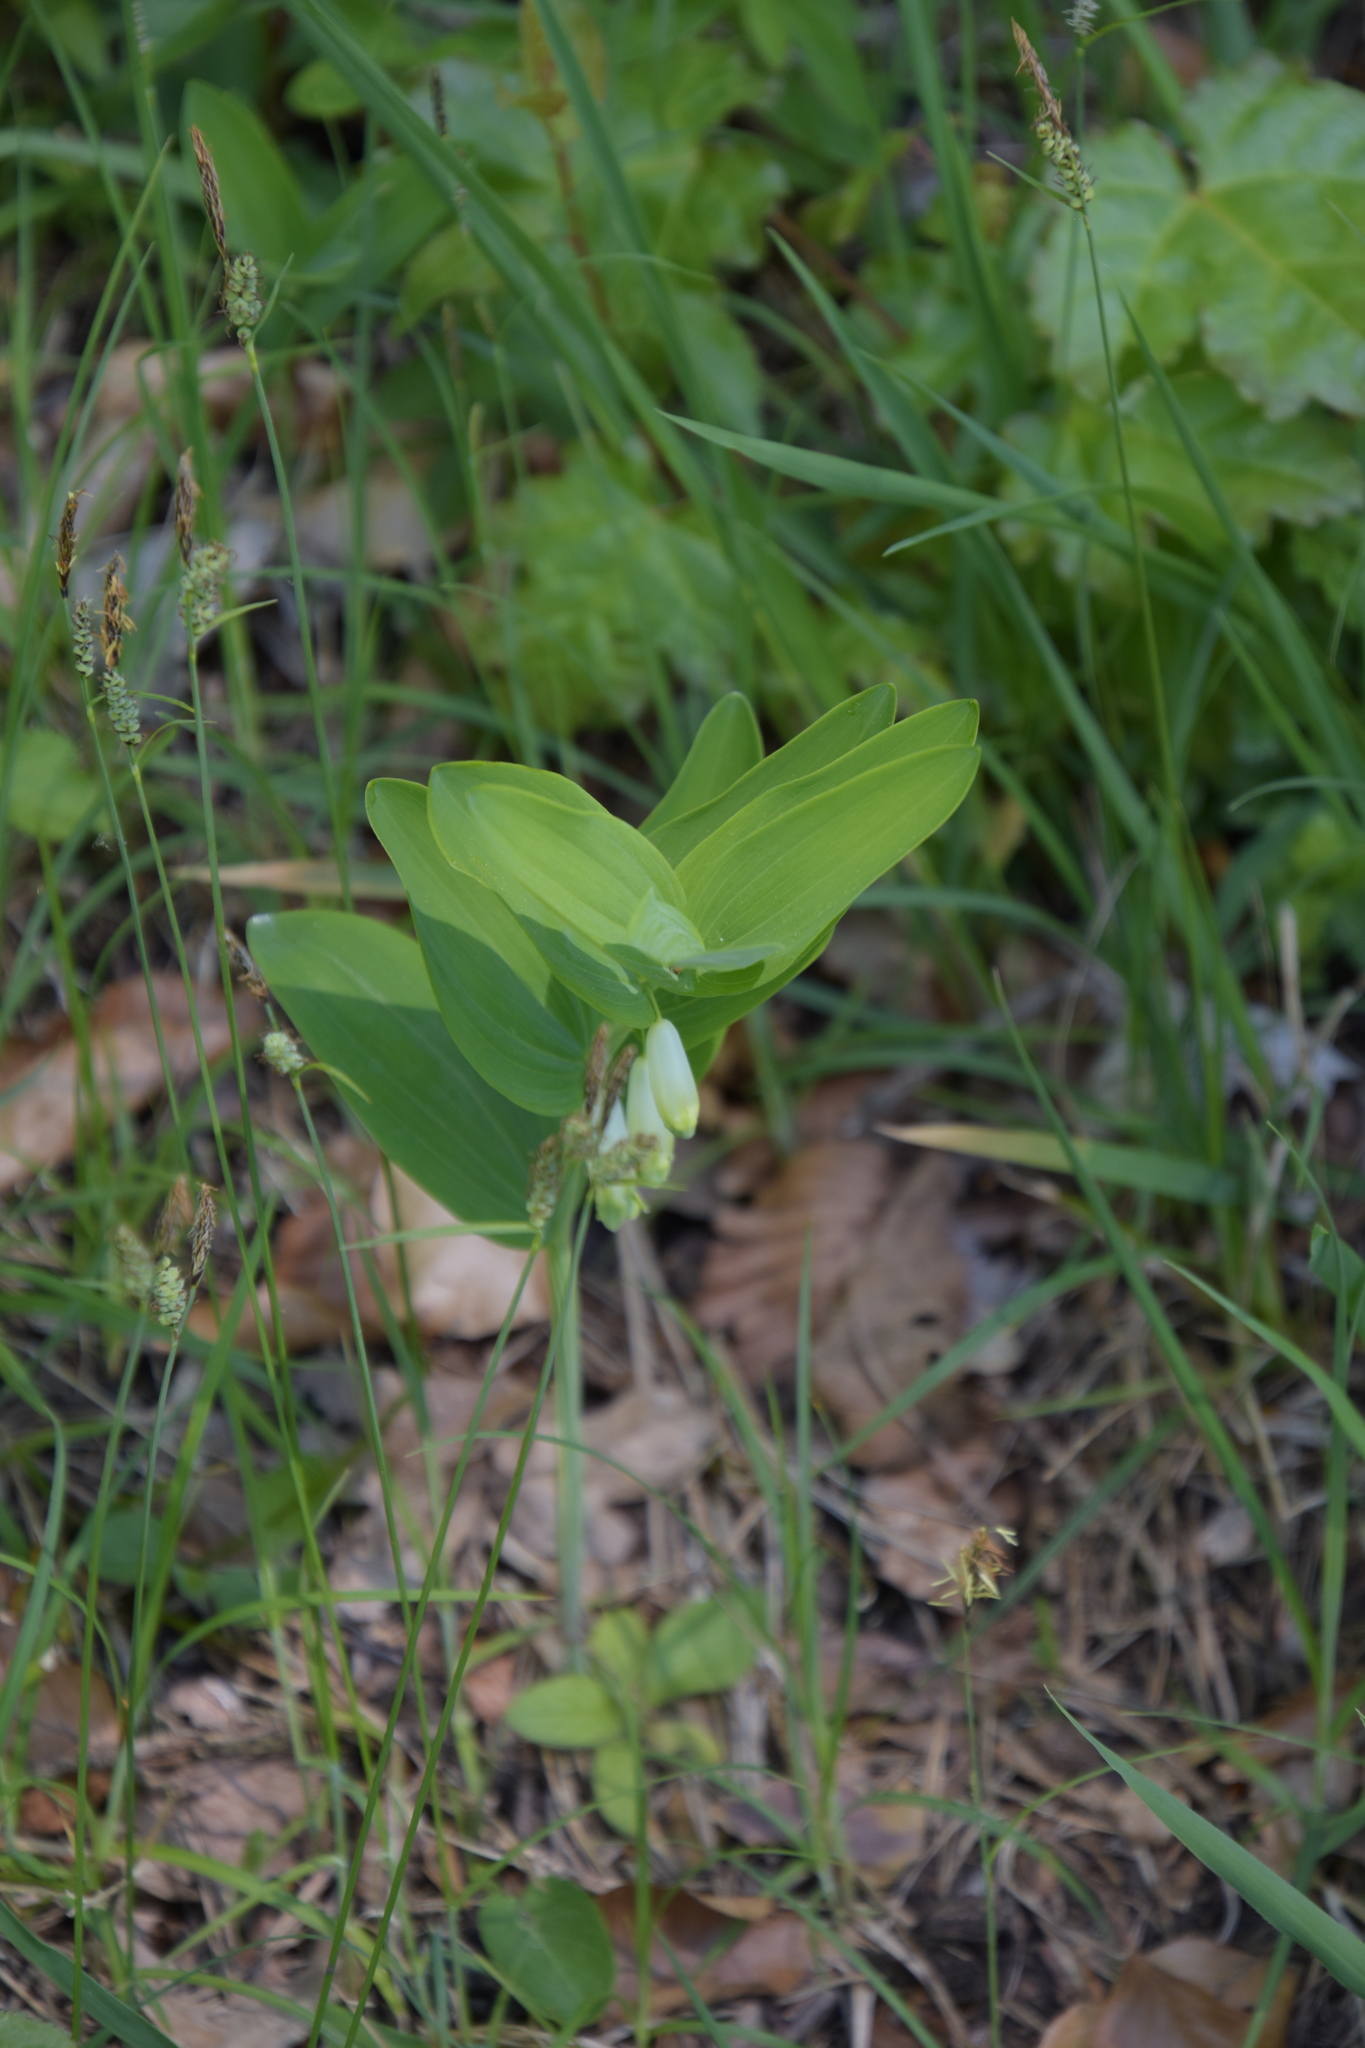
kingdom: Plantae
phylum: Tracheophyta
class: Liliopsida
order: Asparagales
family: Asparagaceae
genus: Polygonatum
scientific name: Polygonatum odoratum
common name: Angular solomon's-seal
